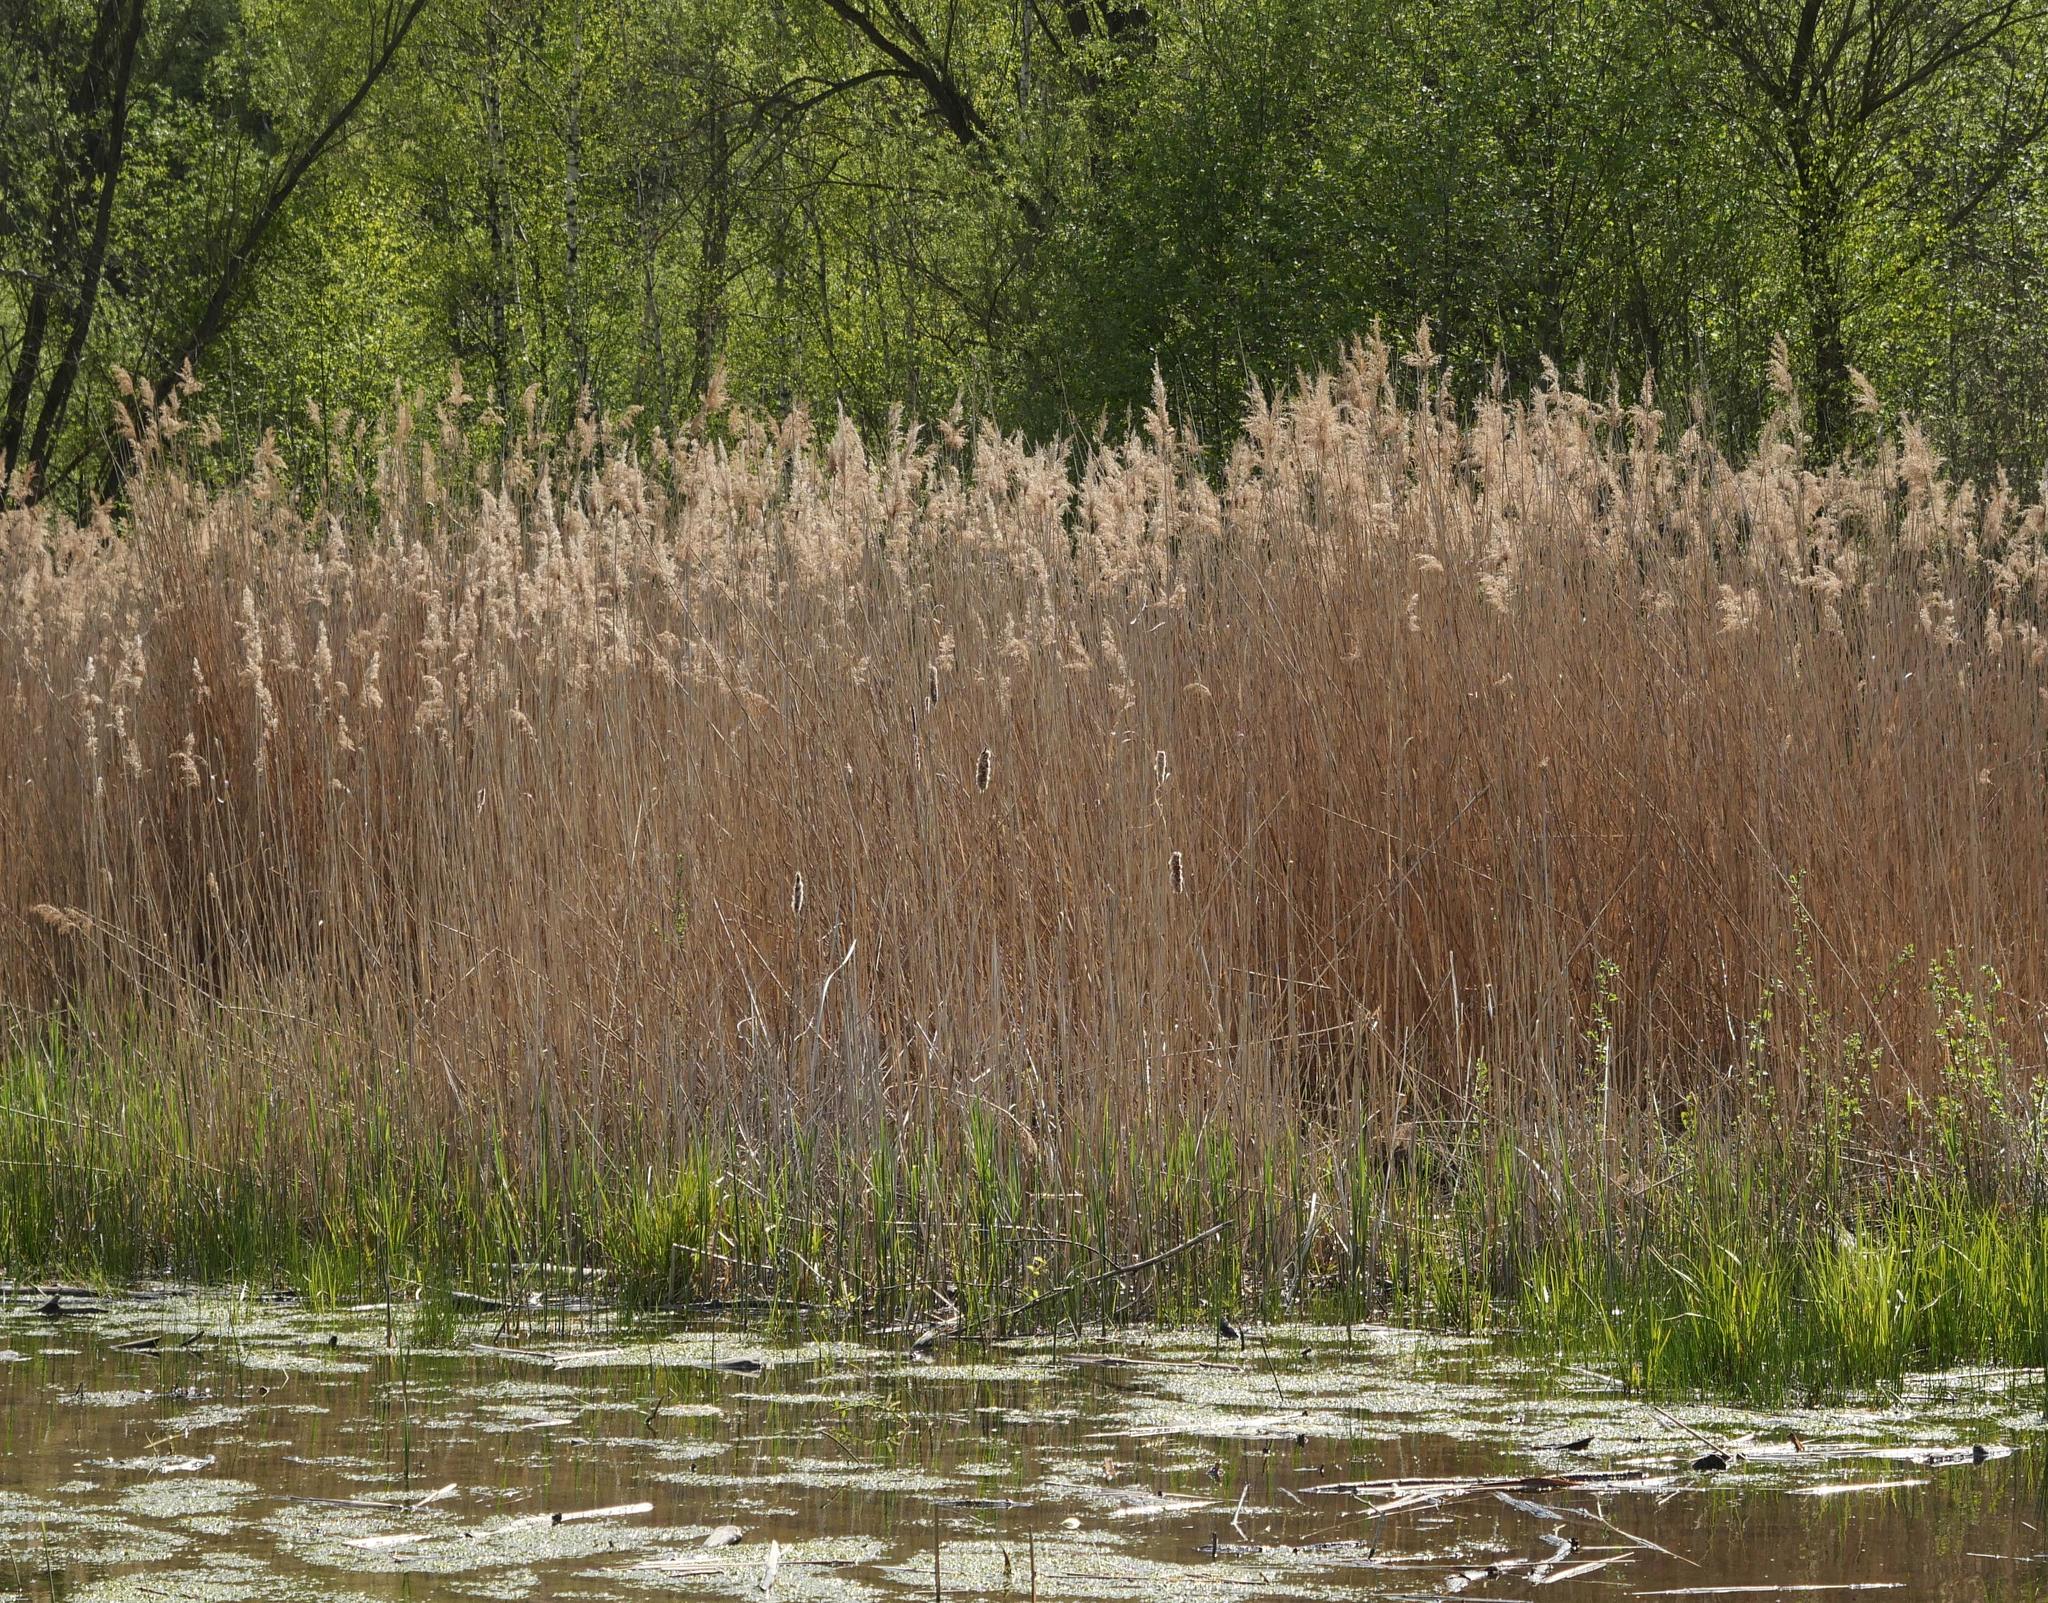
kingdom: Plantae
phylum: Tracheophyta
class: Liliopsida
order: Poales
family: Poaceae
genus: Phragmites
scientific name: Phragmites australis
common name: Common reed
